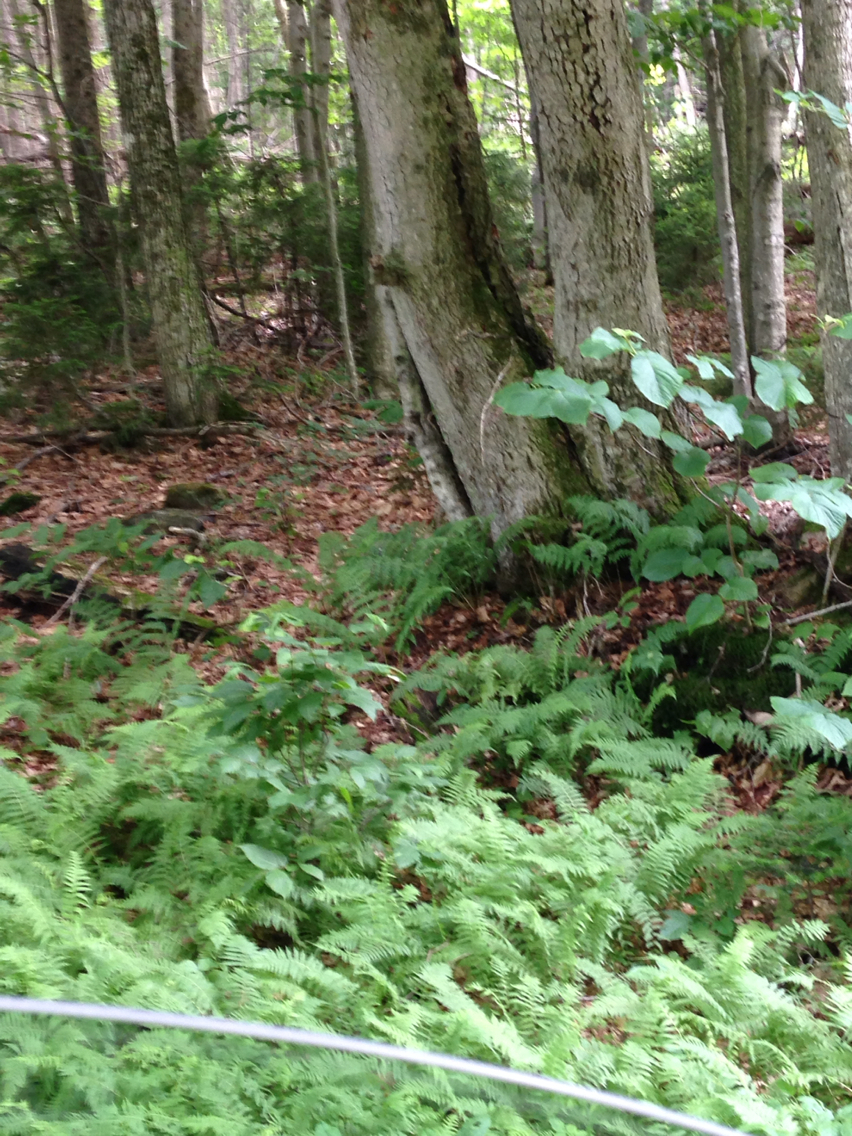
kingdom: Plantae
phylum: Tracheophyta
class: Magnoliopsida
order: Dipsacales
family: Viburnaceae
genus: Viburnum
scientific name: Viburnum lantanoides
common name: Hobblebush
